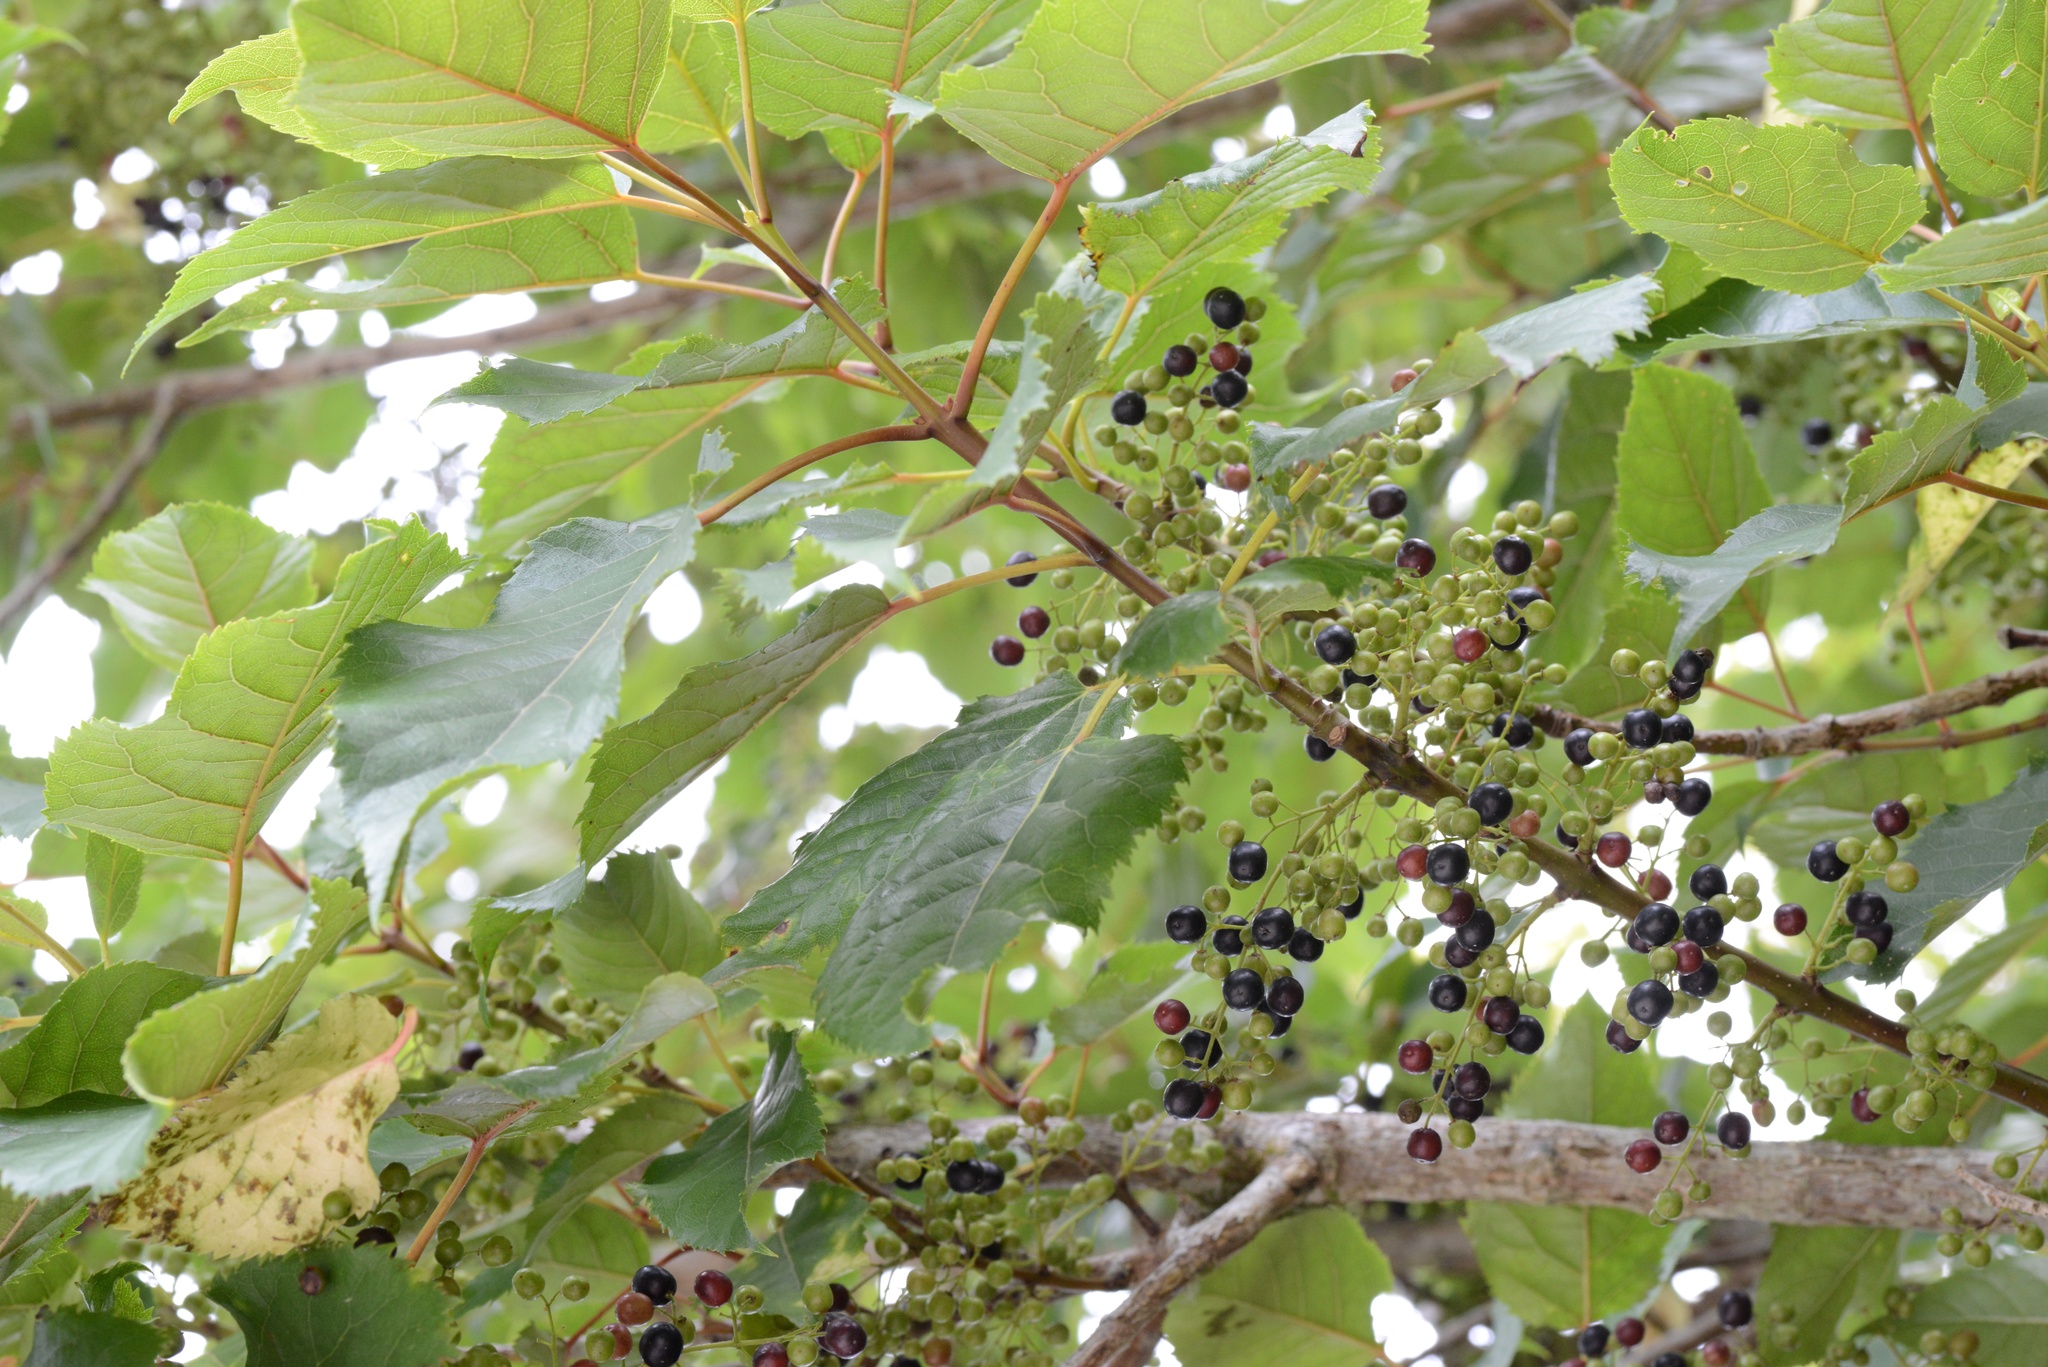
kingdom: Plantae
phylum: Tracheophyta
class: Magnoliopsida
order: Oxalidales
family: Elaeocarpaceae
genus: Aristotelia
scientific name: Aristotelia serrata
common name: New zealand wineberry
